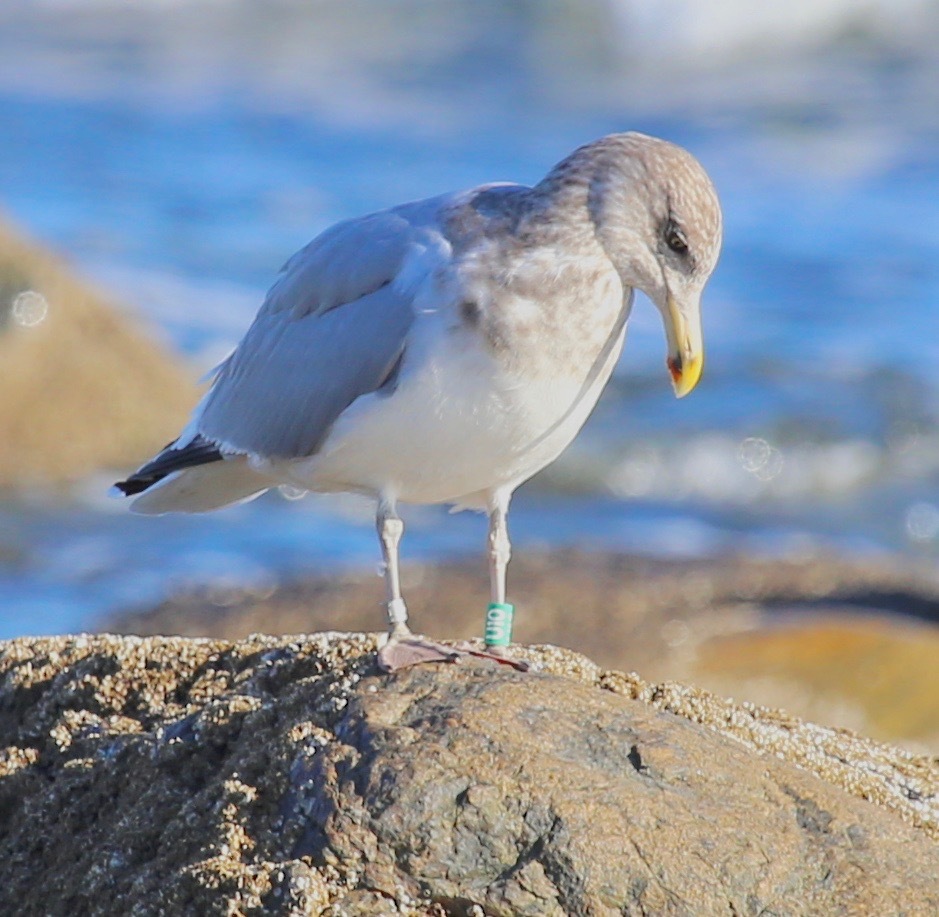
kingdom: Animalia
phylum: Chordata
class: Aves
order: Charadriiformes
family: Laridae
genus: Larus
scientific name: Larus argentatus
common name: Herring gull
